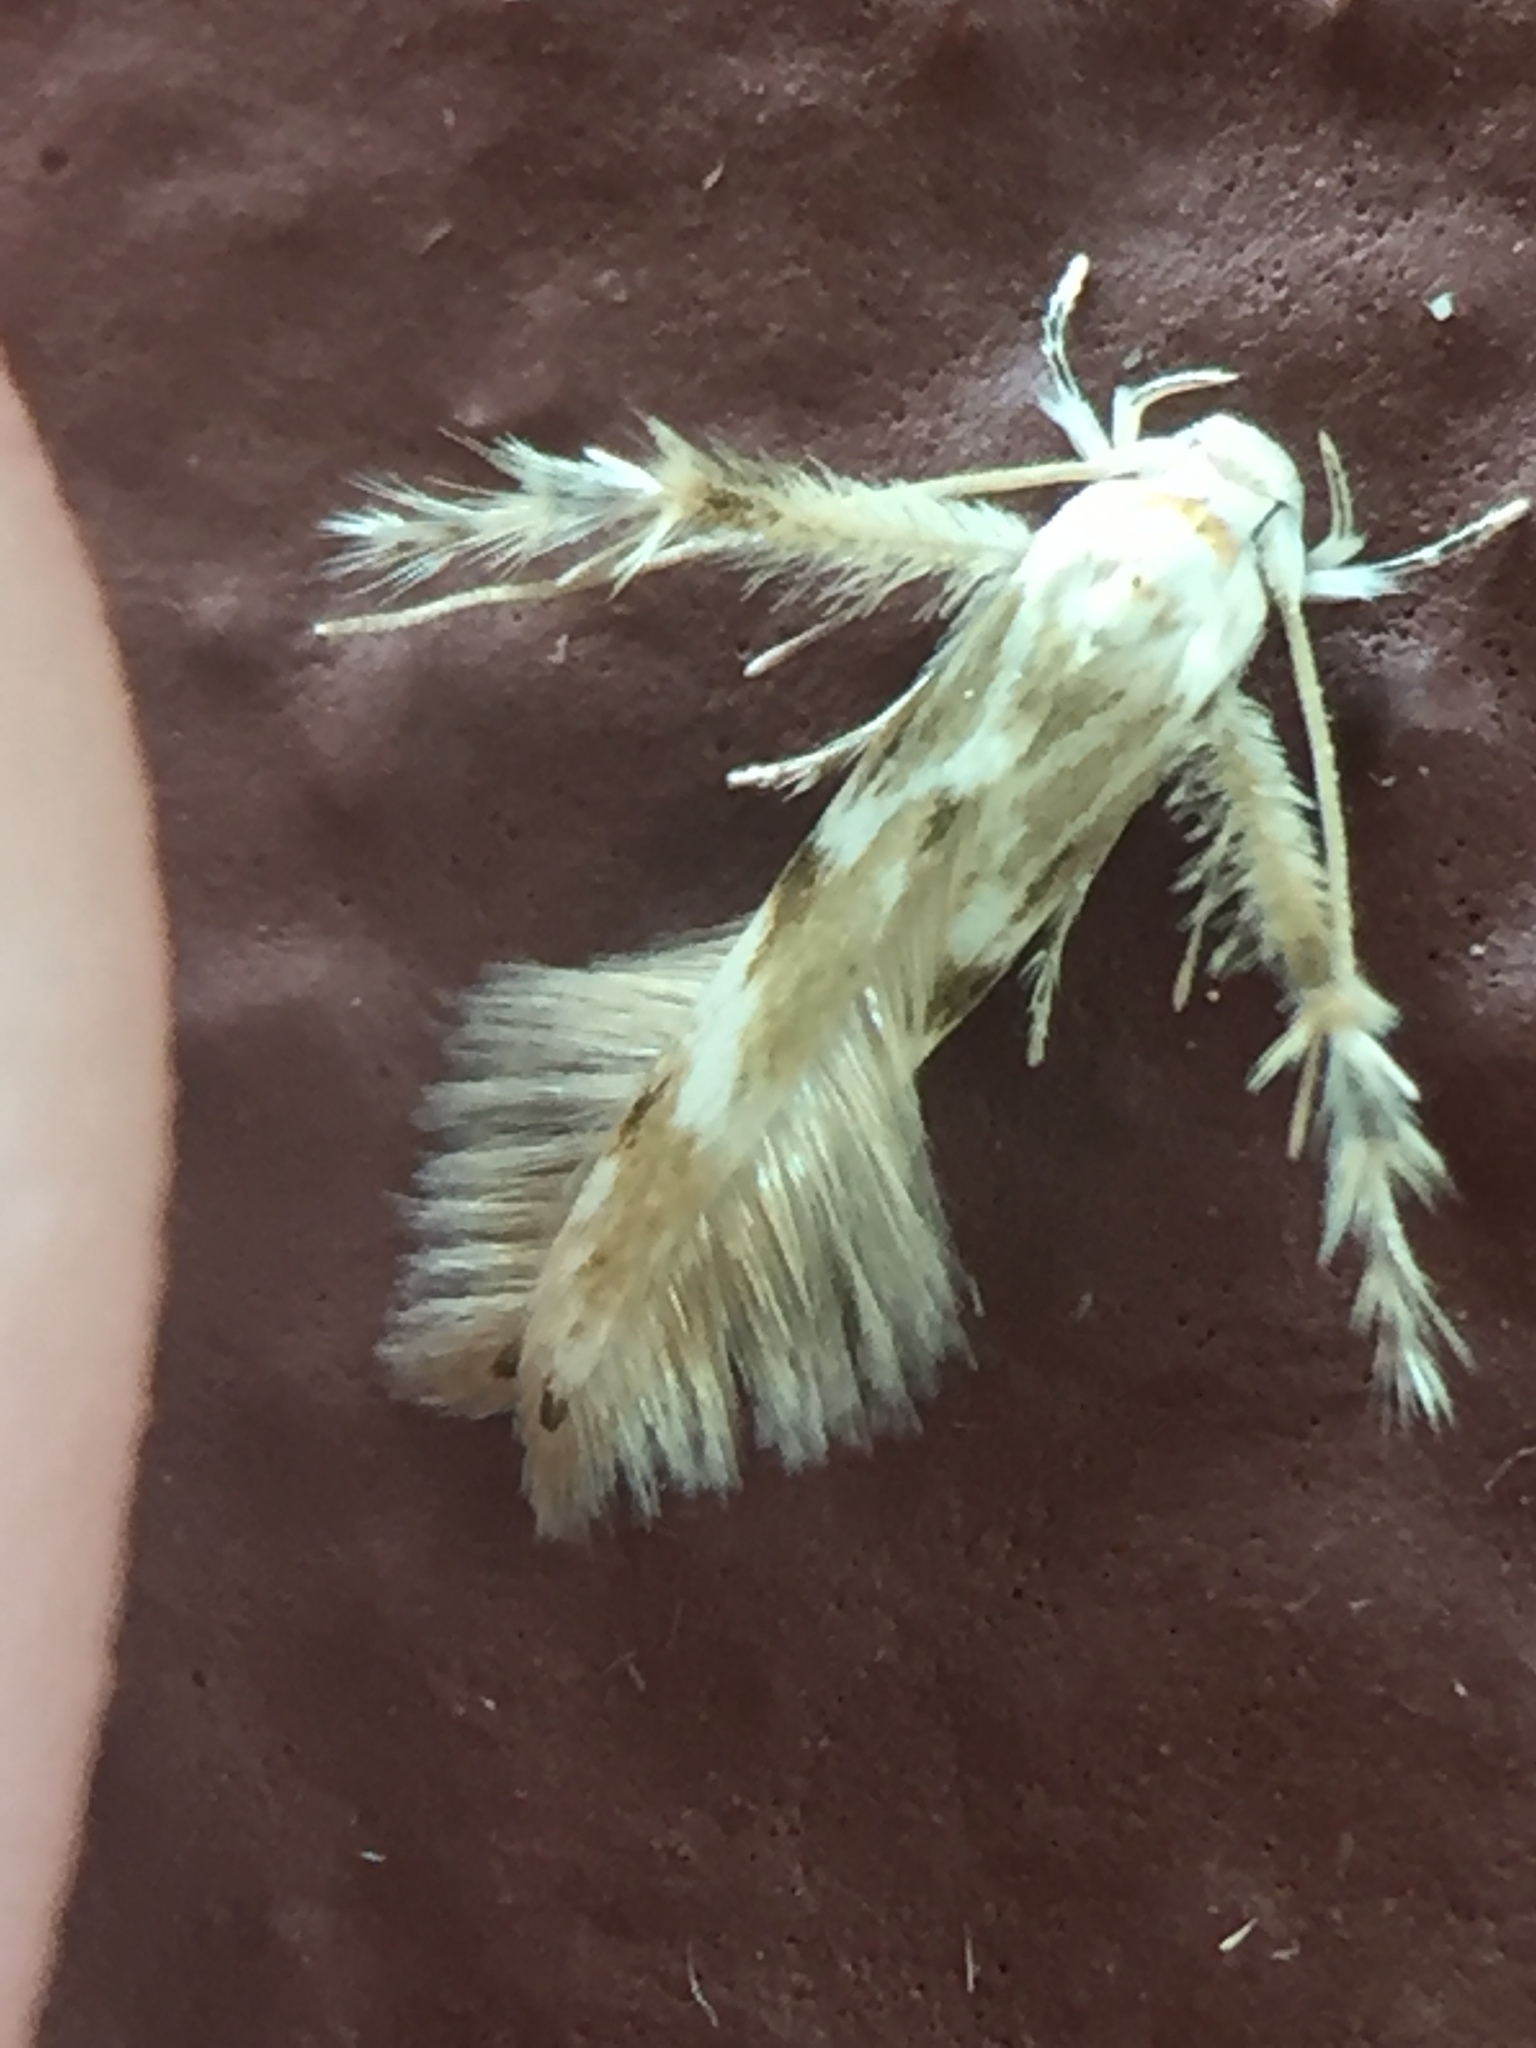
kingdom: Animalia
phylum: Arthropoda
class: Insecta
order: Lepidoptera
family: Stathmopodidae
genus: Calicotis
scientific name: Calicotis crucifera
